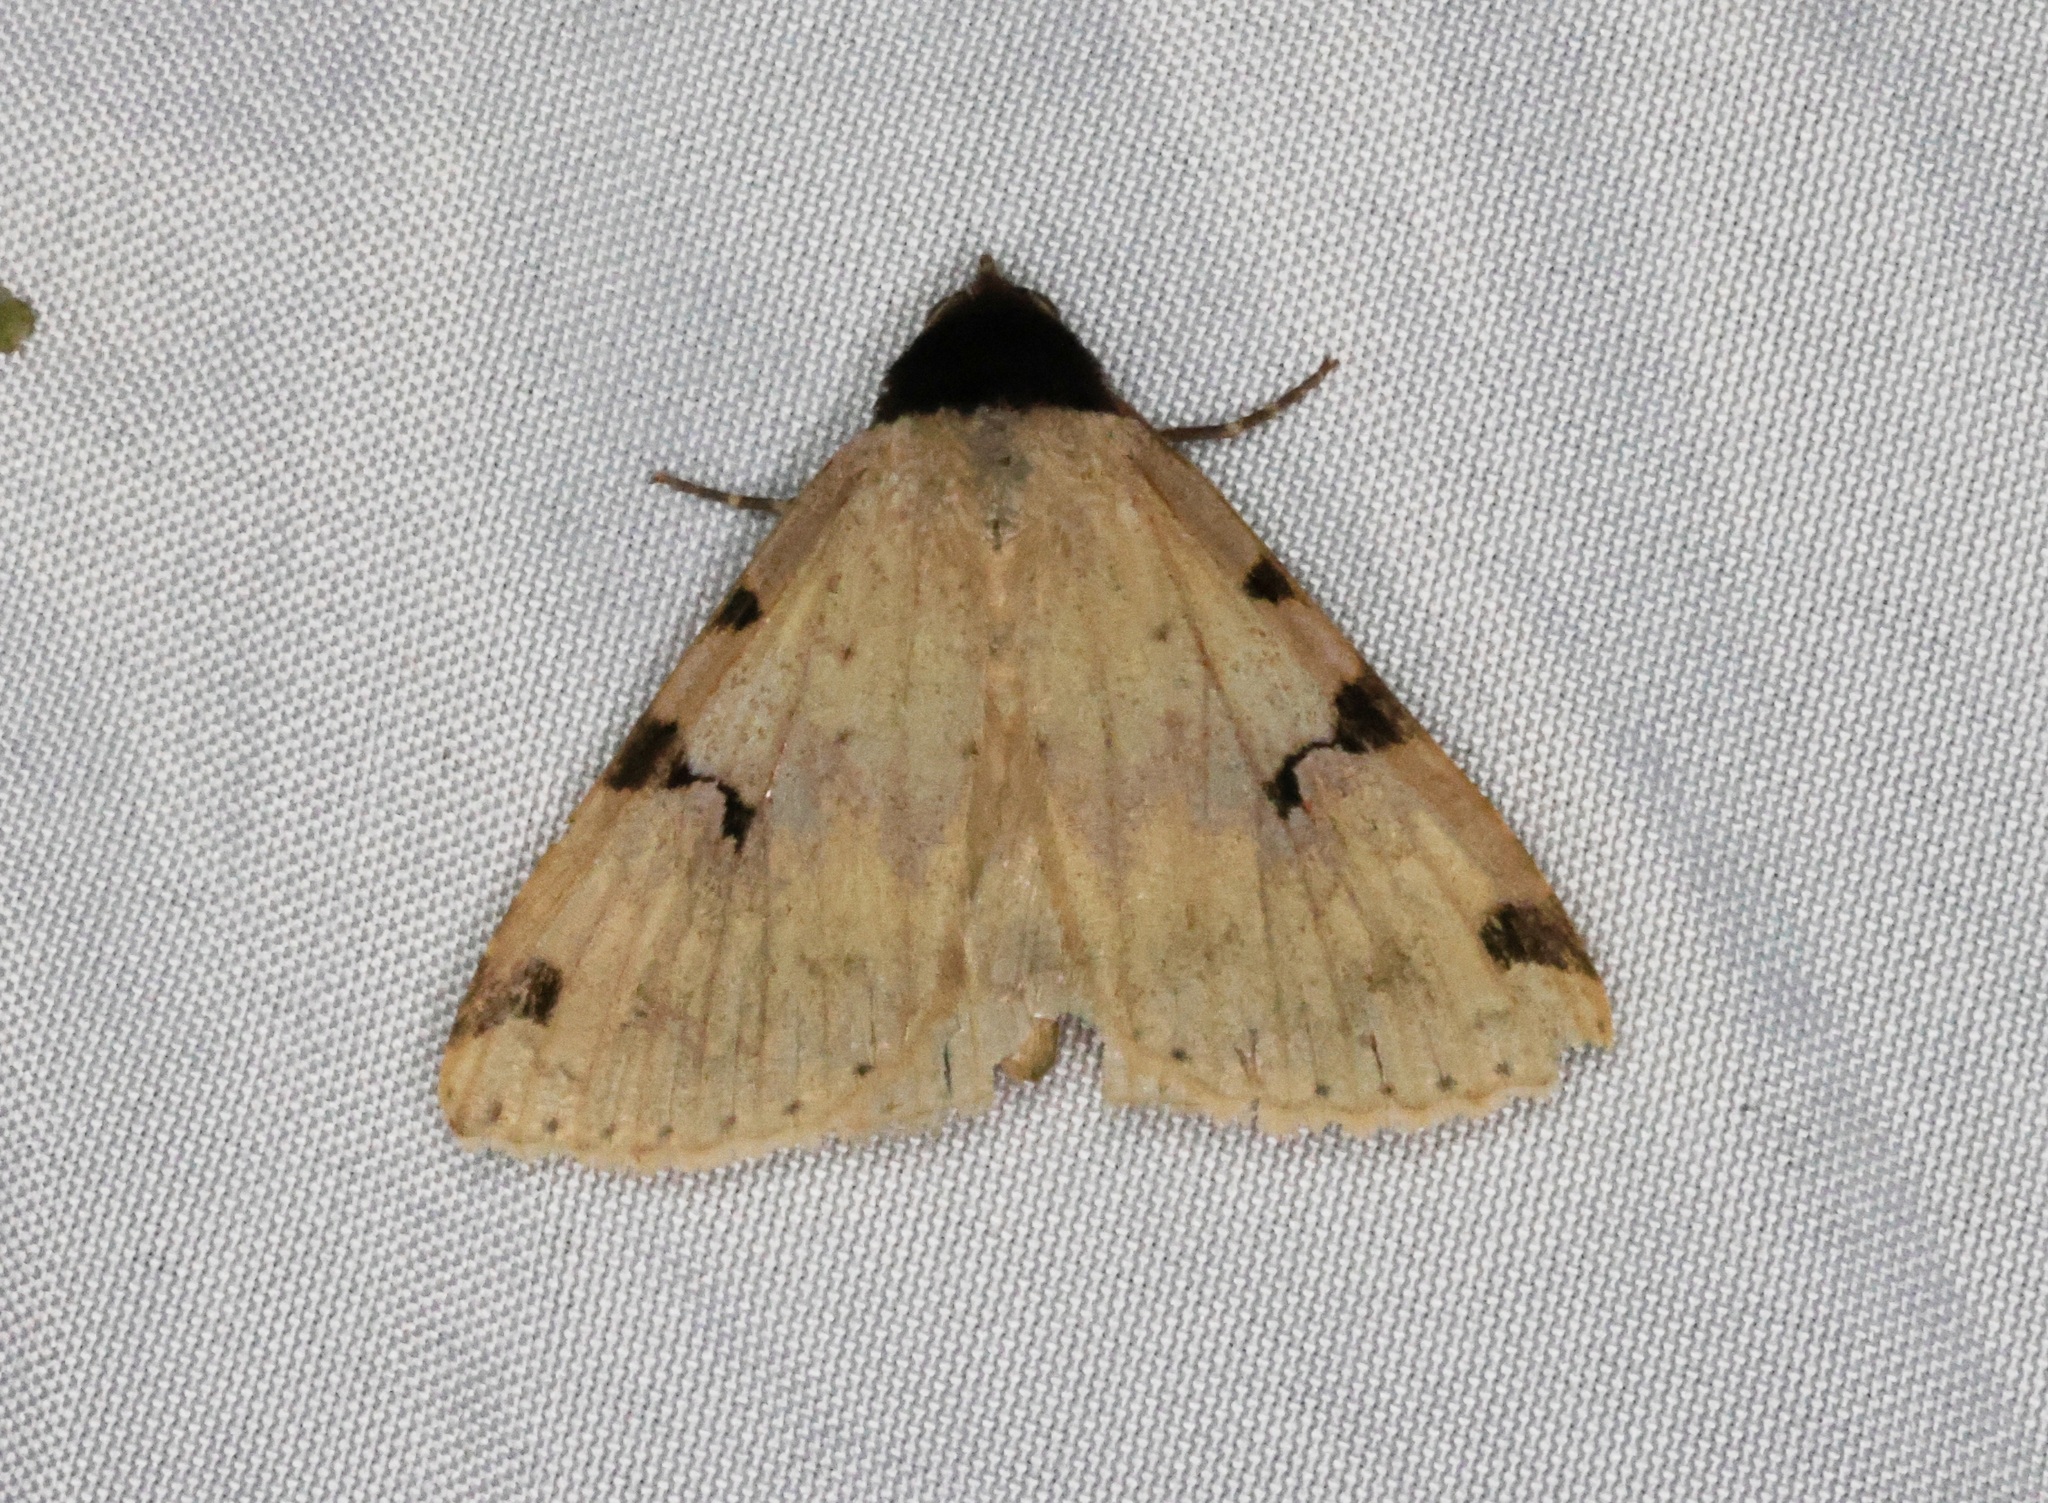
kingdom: Animalia
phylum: Arthropoda
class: Insecta
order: Lepidoptera
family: Erebidae
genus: Rema
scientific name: Rema costimacula
